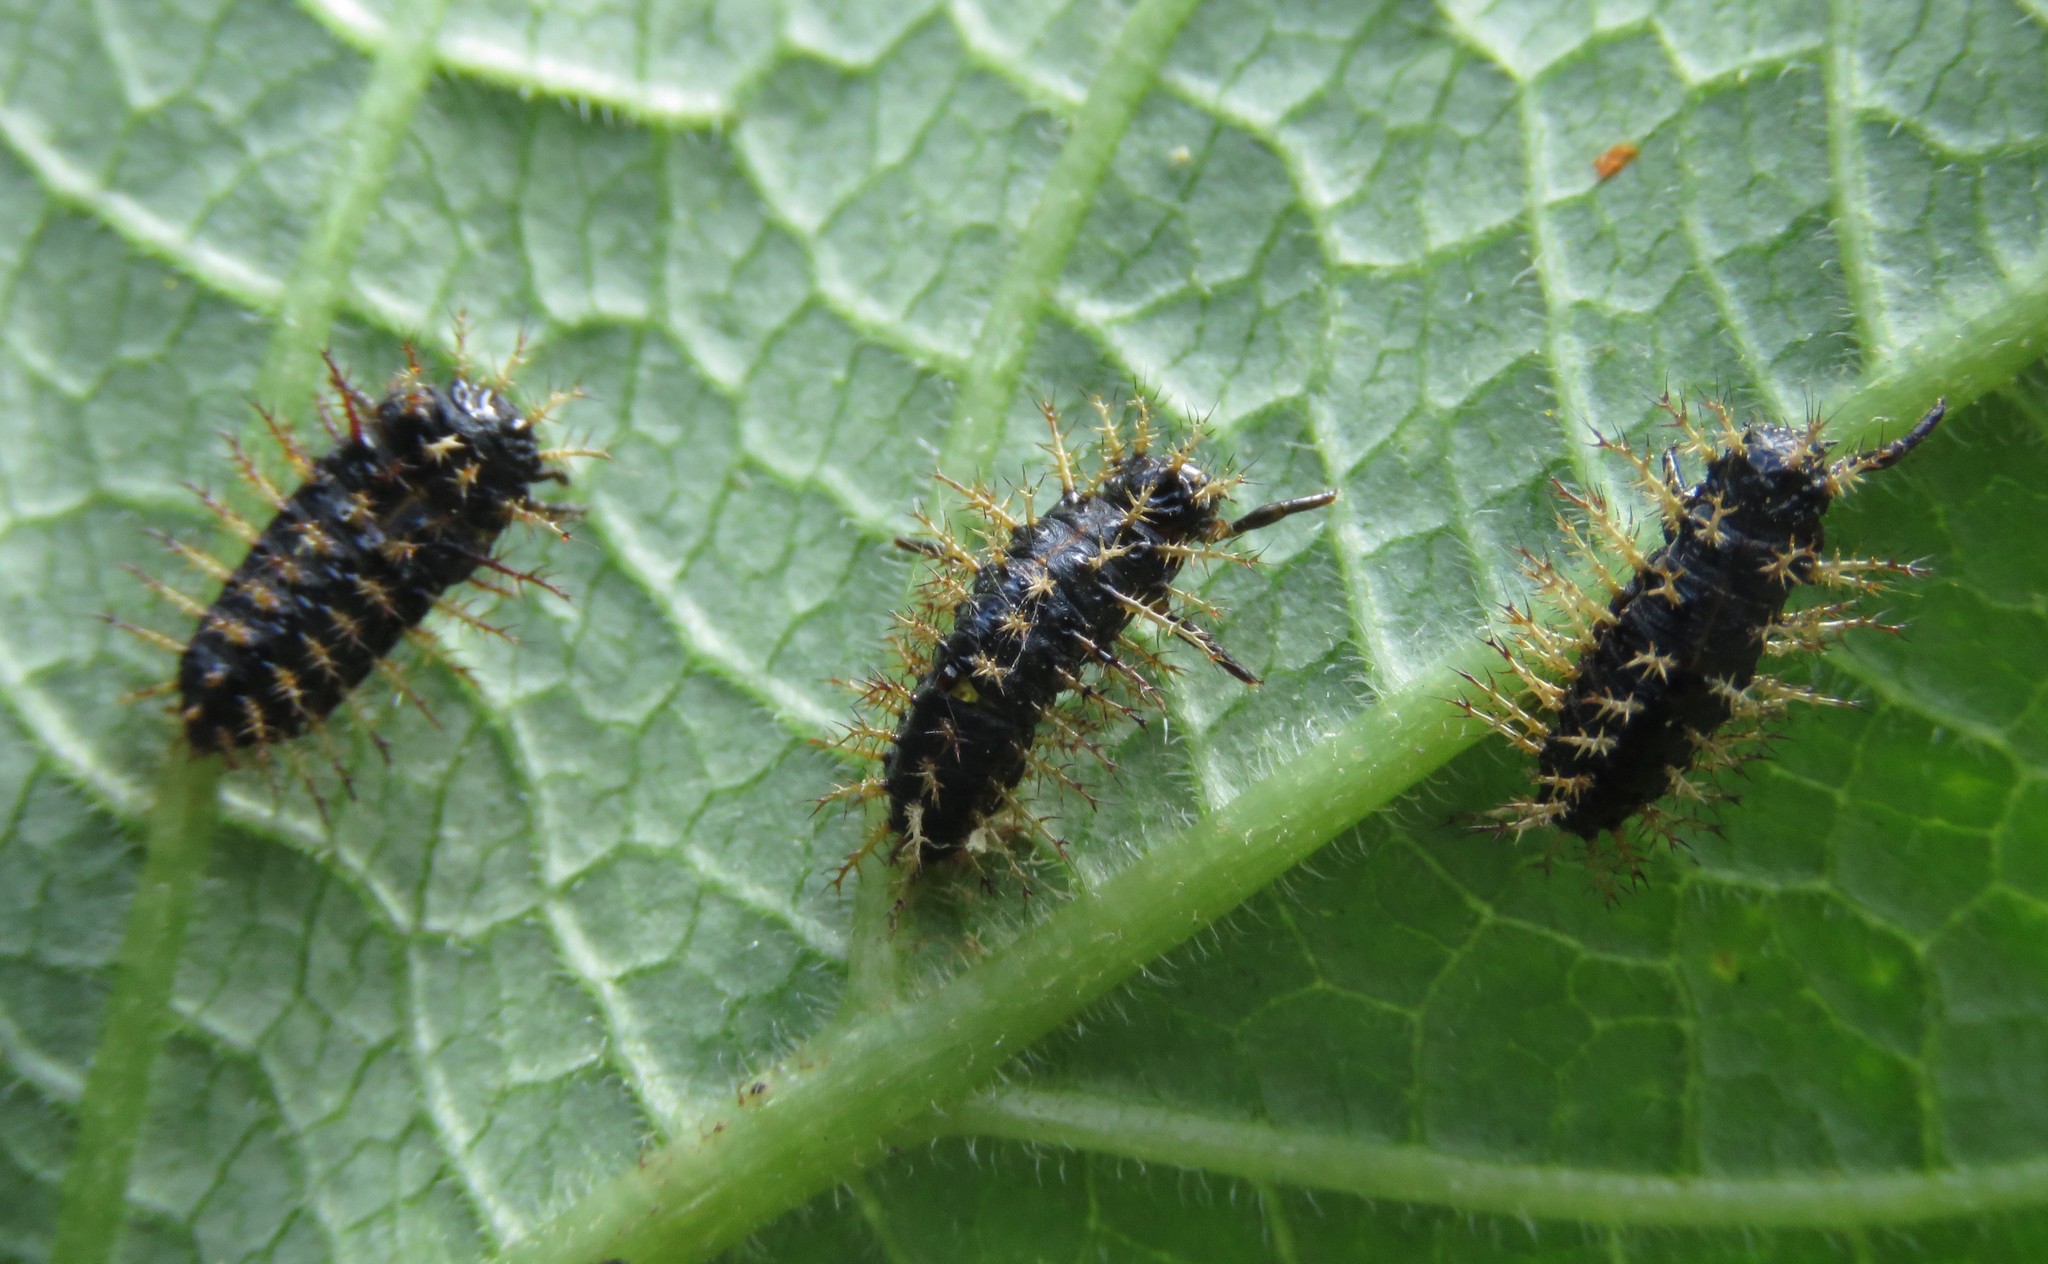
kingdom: Animalia
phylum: Arthropoda
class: Insecta
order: Coleoptera
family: Coccinellidae
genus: Toxotoma
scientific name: Toxotoma flavofasciata
